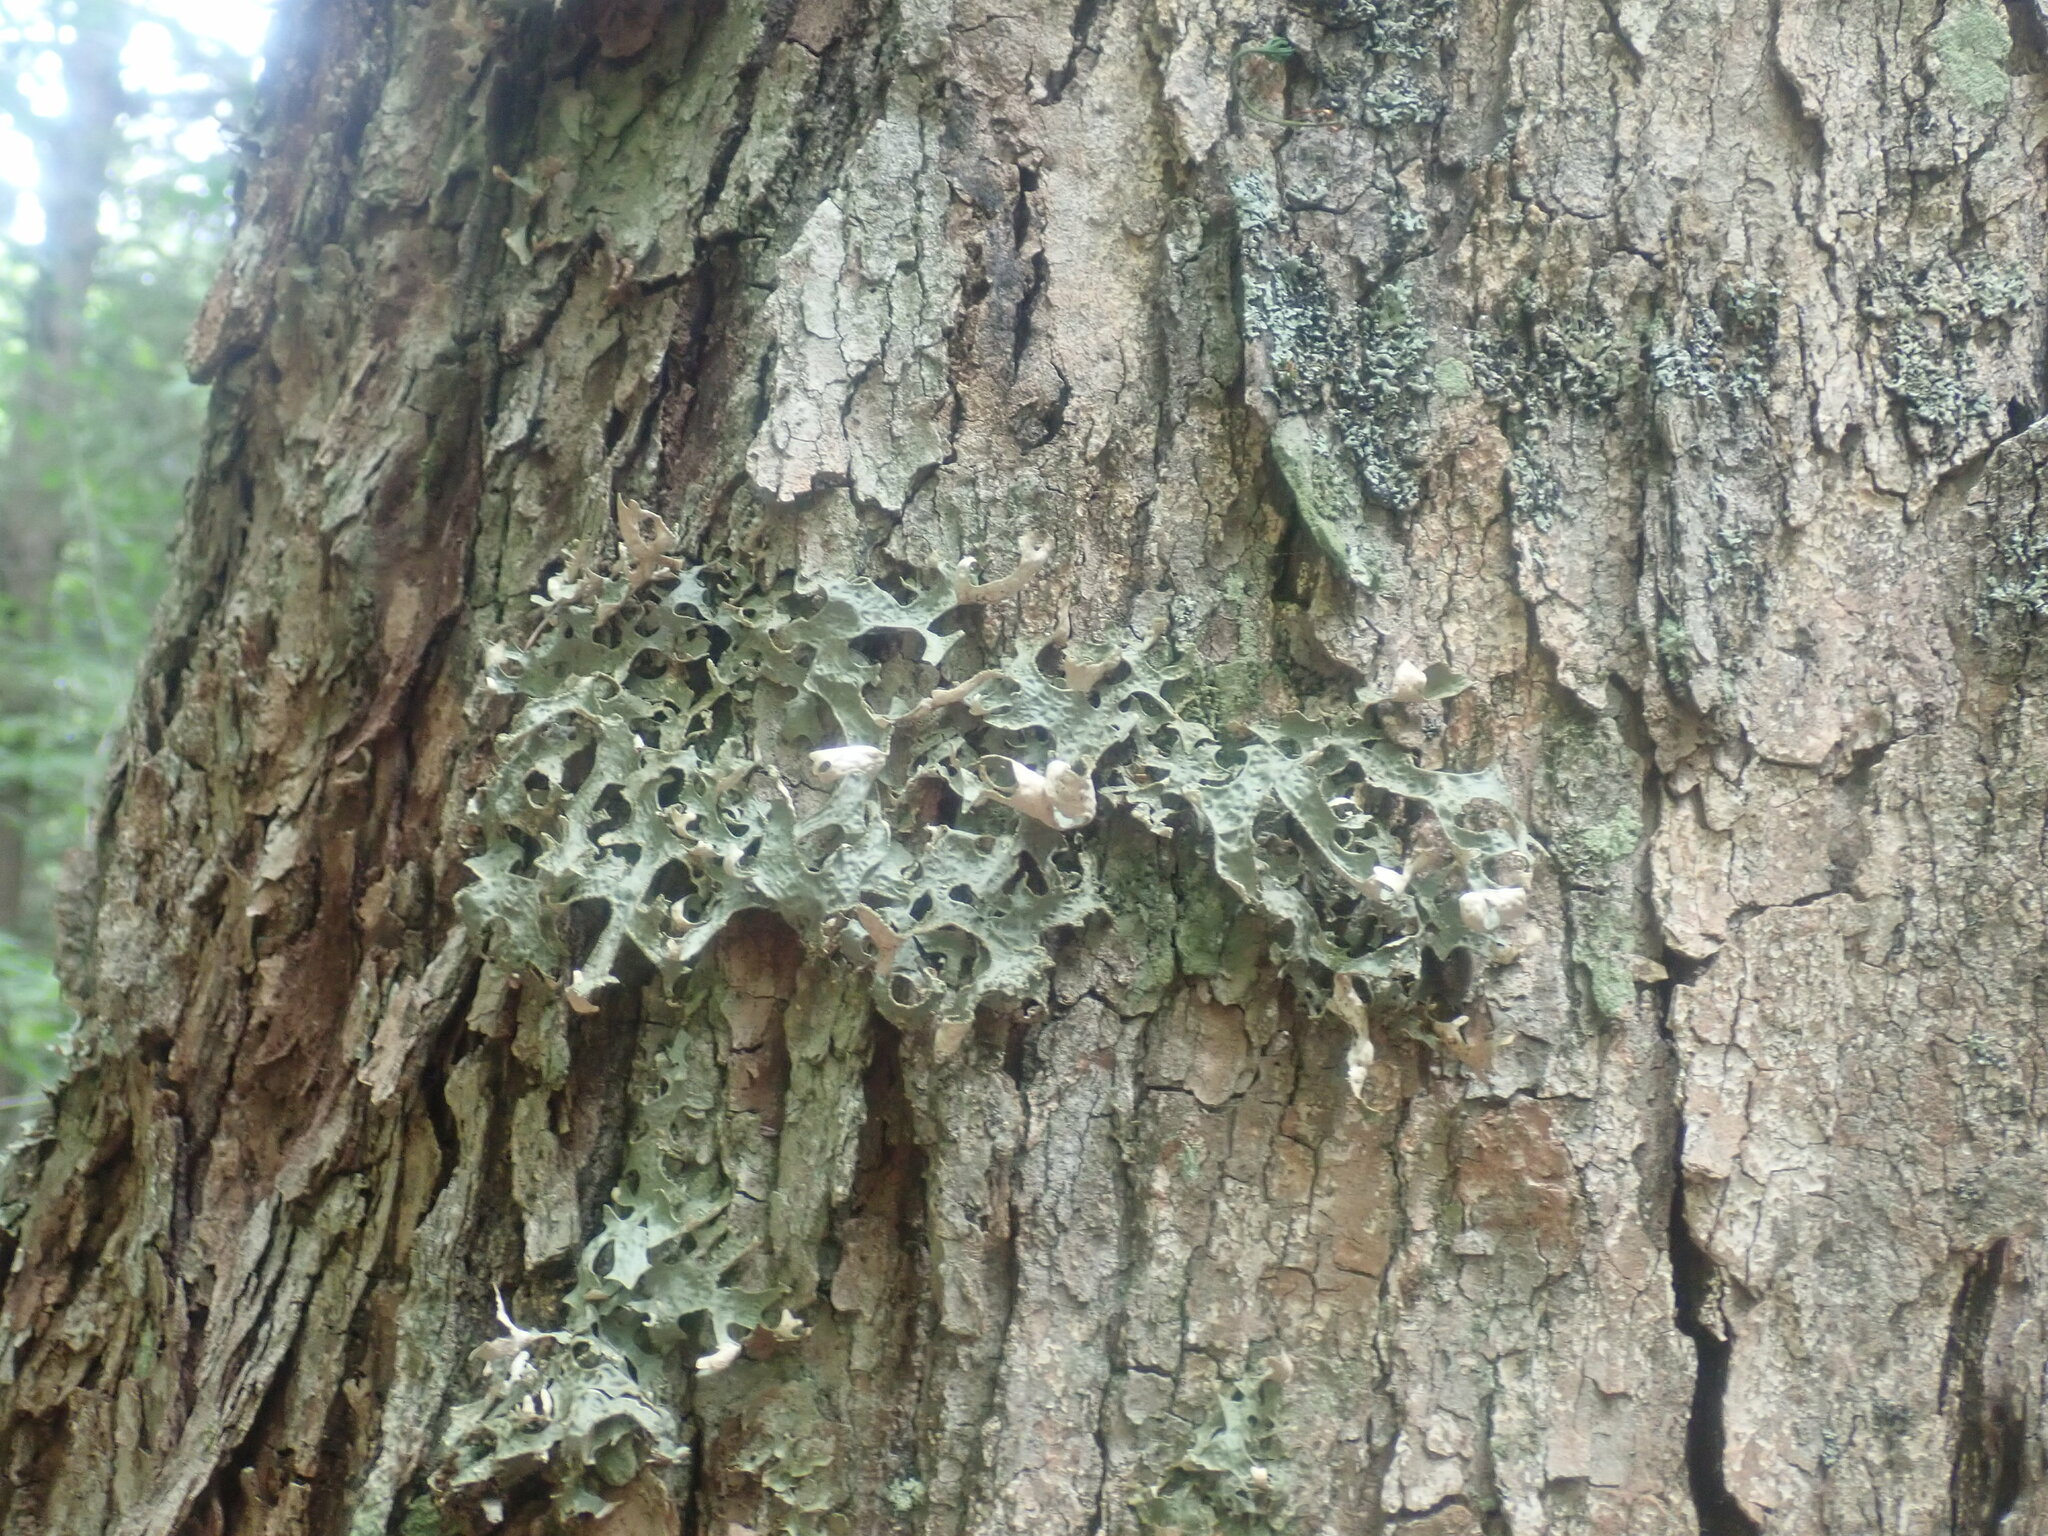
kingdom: Fungi
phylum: Ascomycota
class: Lecanoromycetes
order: Peltigerales
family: Lobariaceae
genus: Lobaria
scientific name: Lobaria pulmonaria
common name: Lungwort
